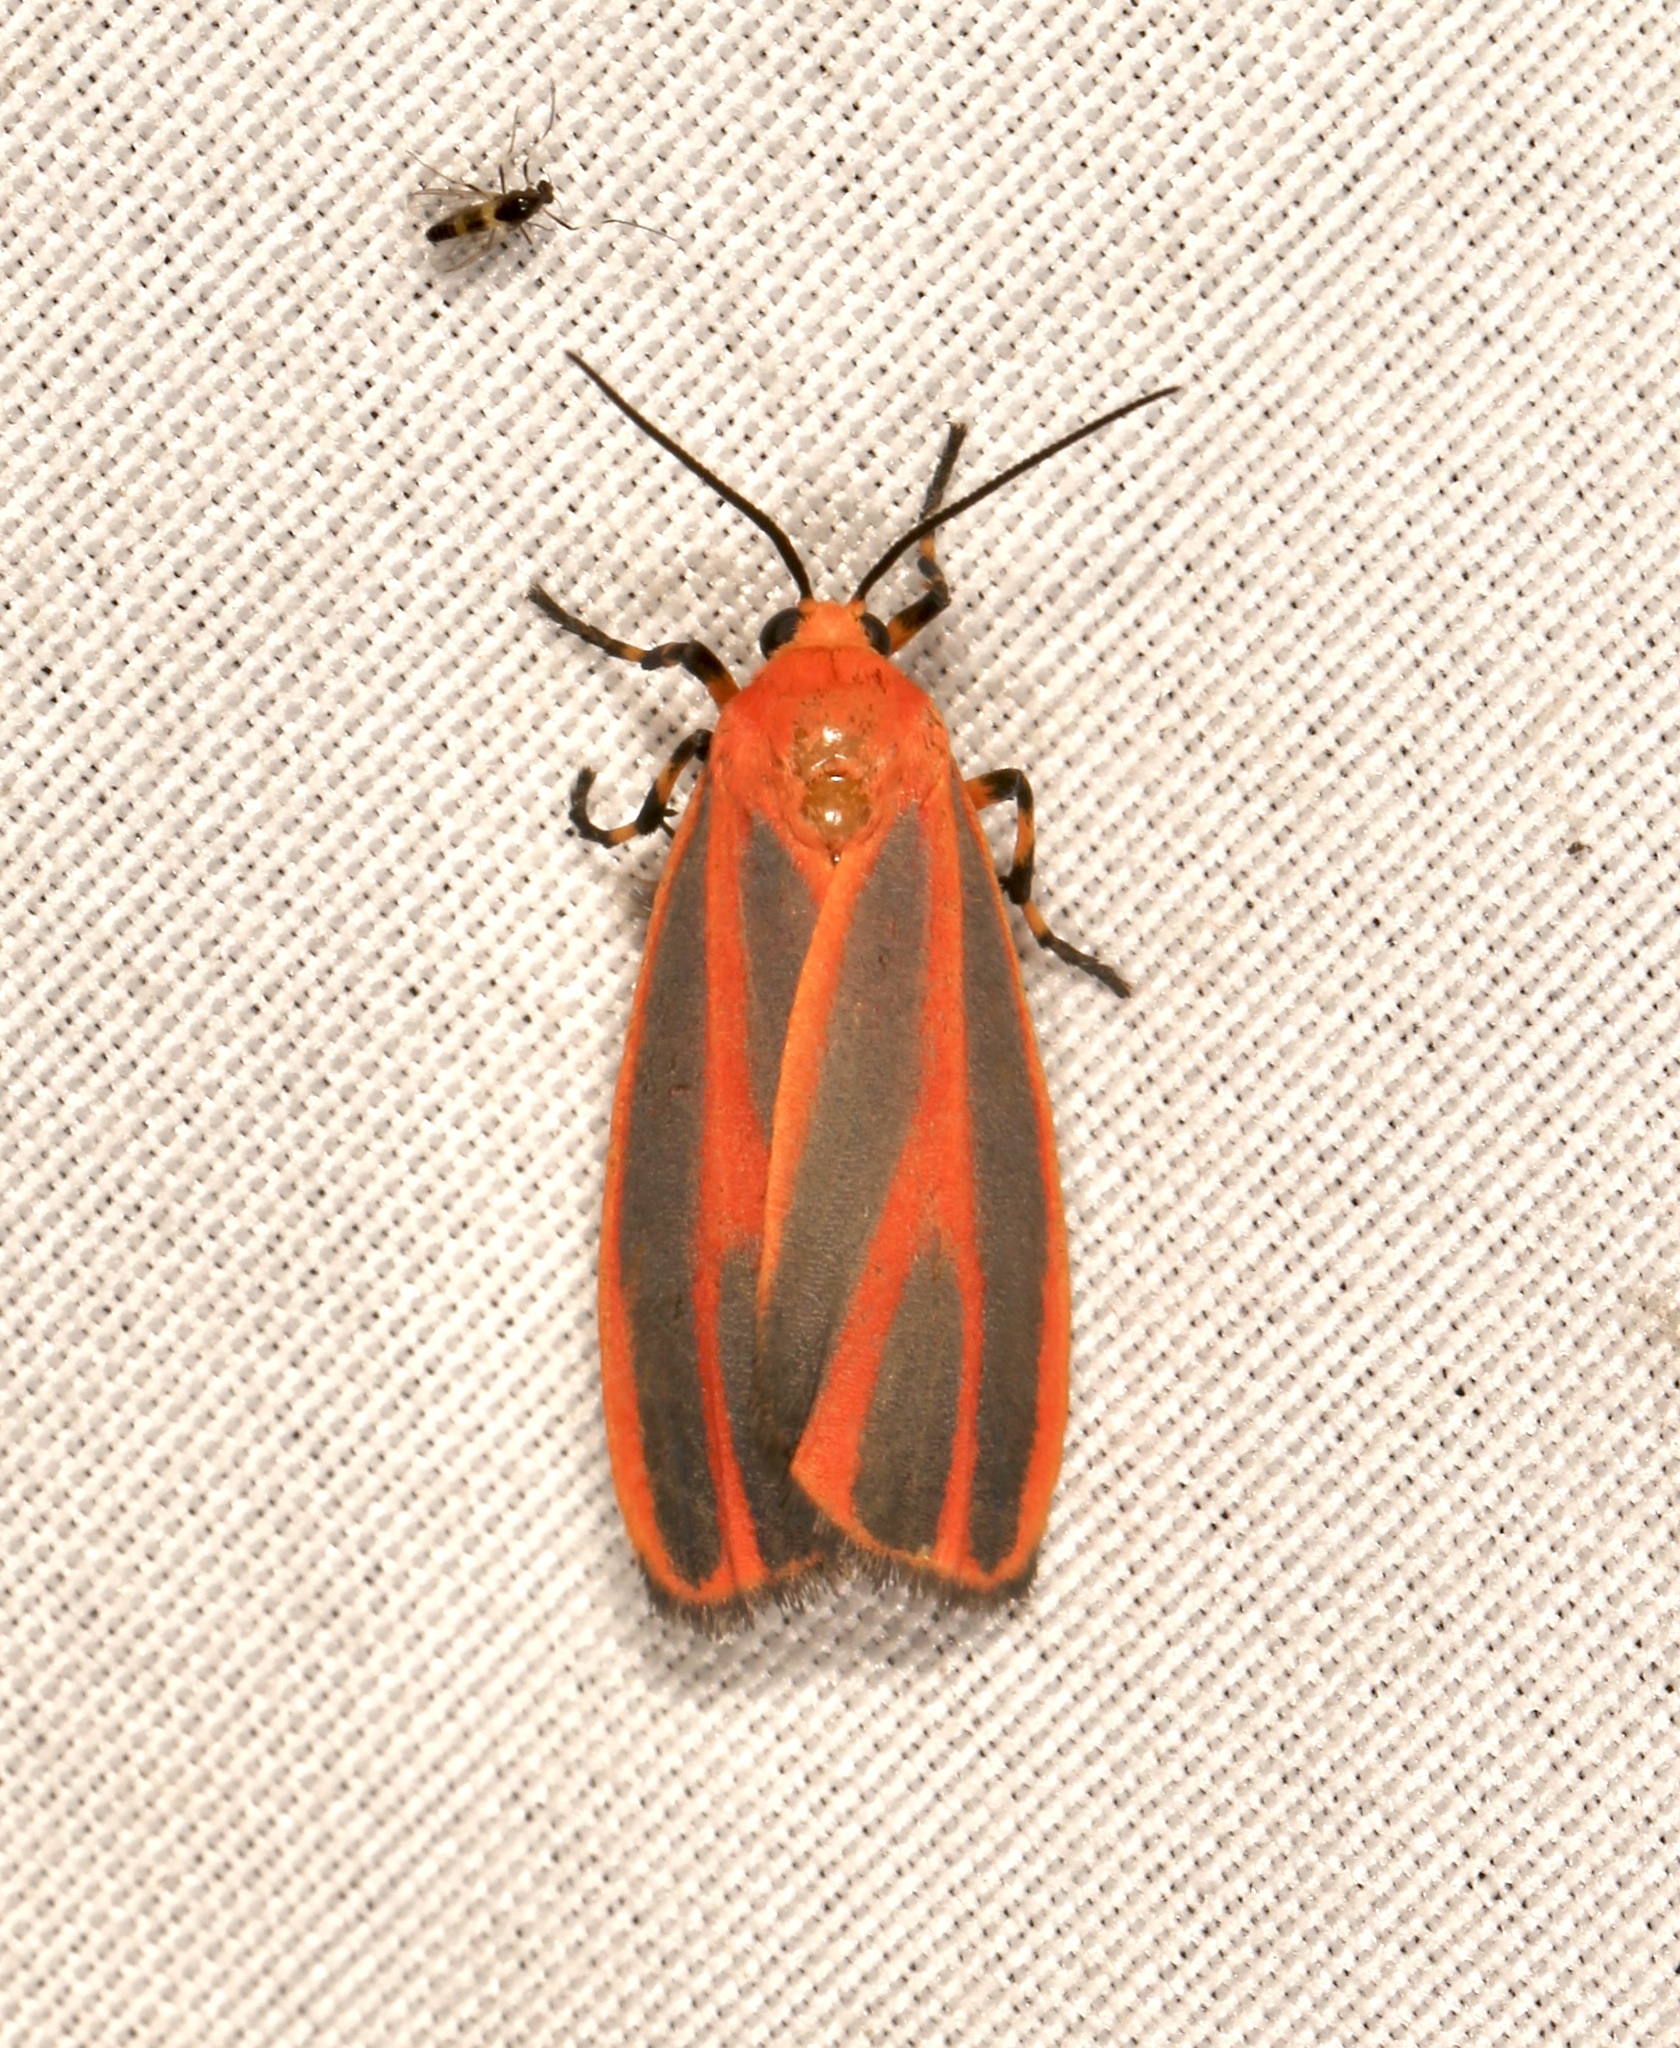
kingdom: Animalia
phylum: Arthropoda
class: Insecta
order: Lepidoptera
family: Erebidae
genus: Hypoprepia
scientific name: Hypoprepia miniata
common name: Scarlet-winged lichen moth
